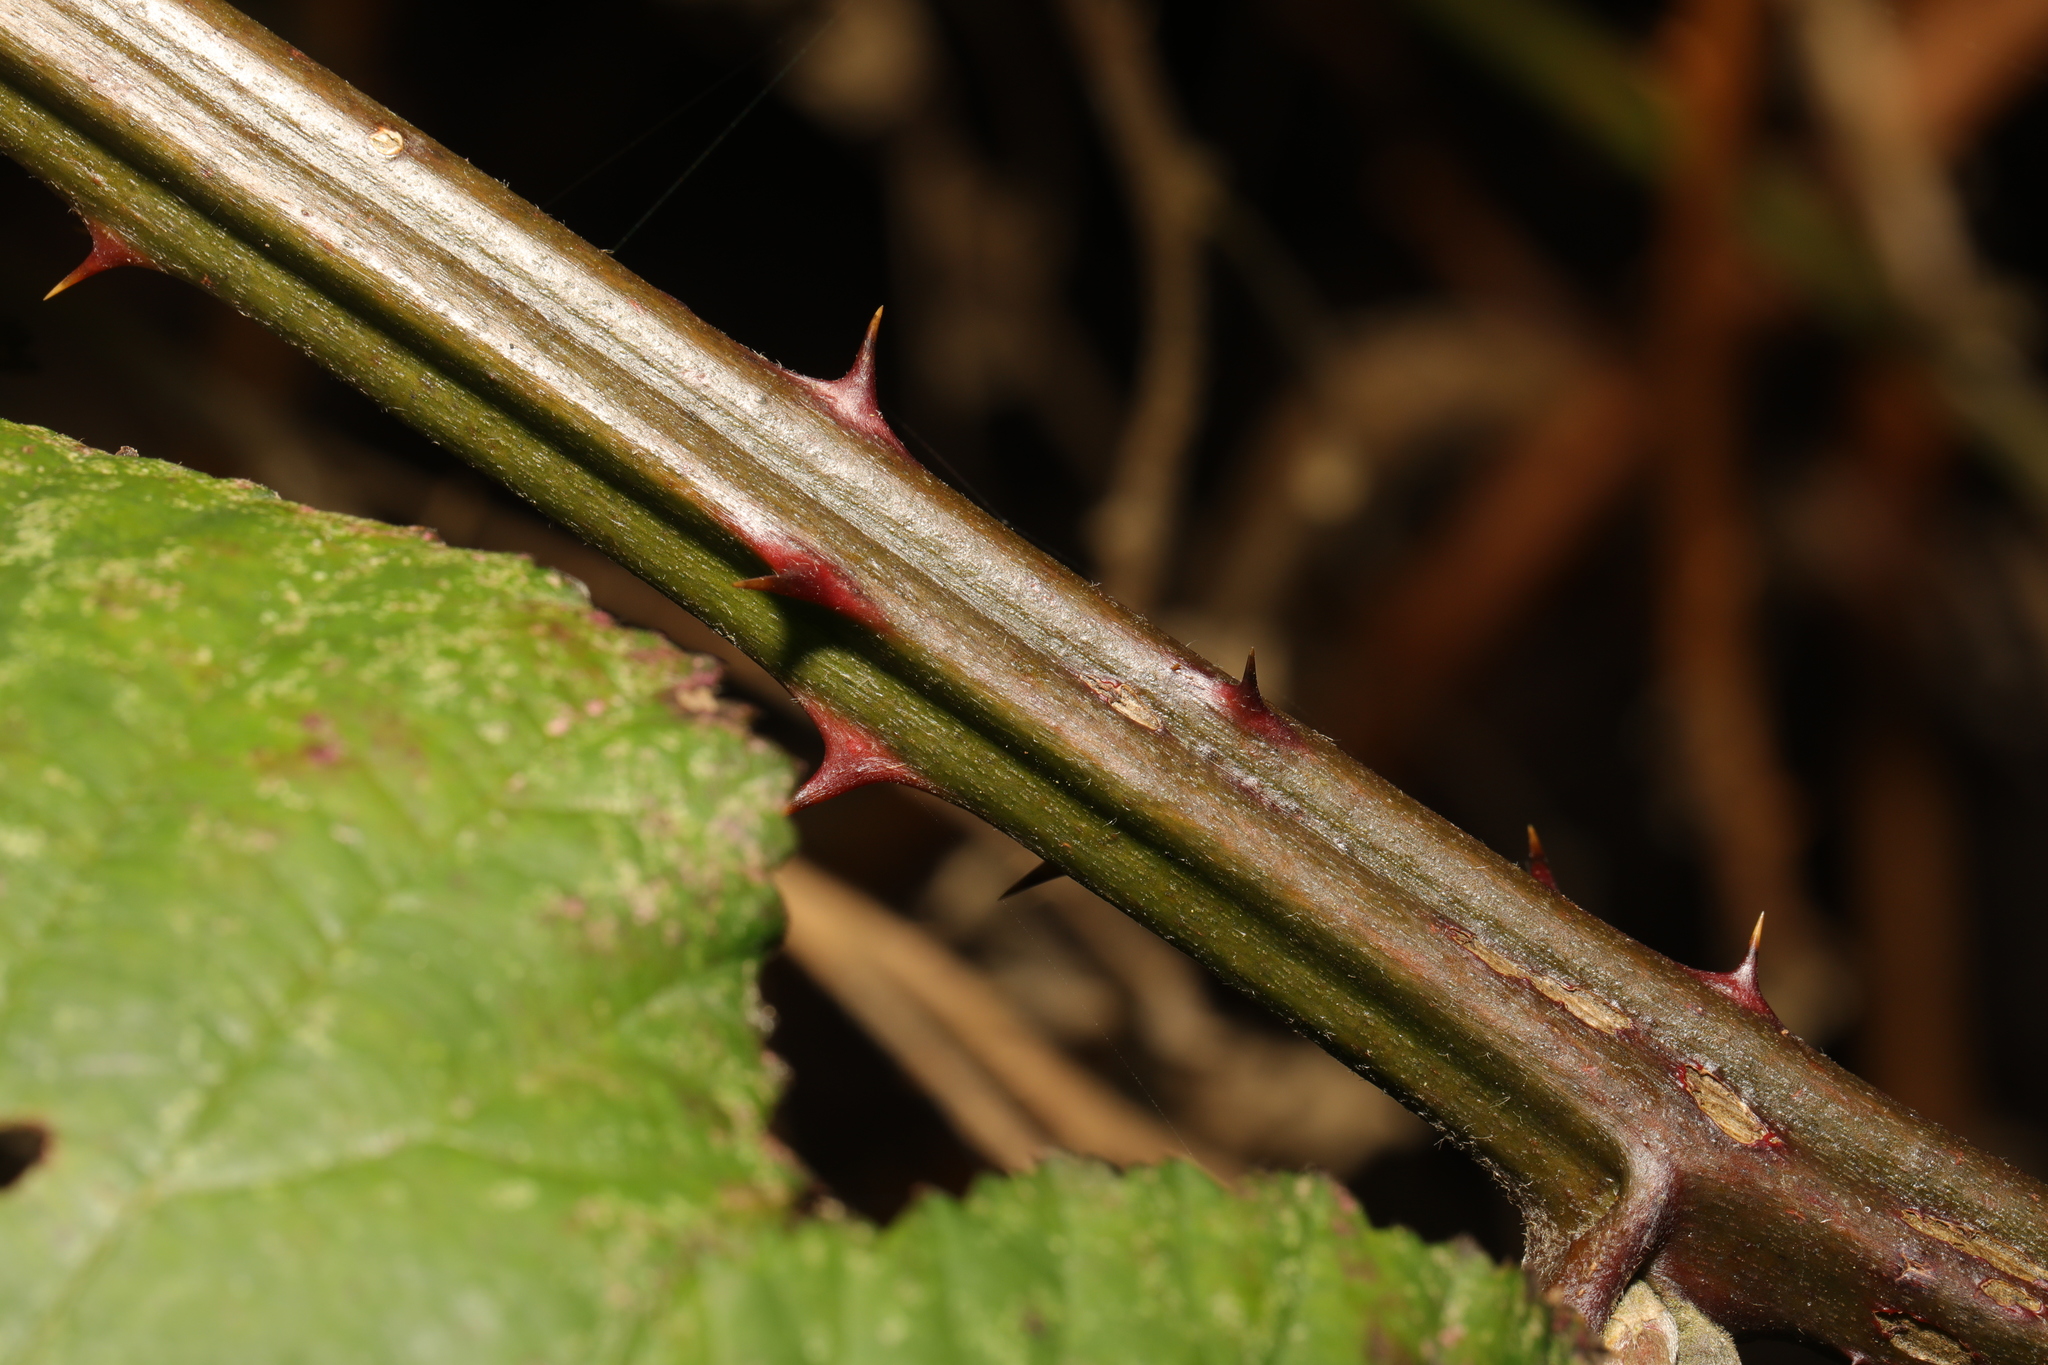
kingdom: Plantae
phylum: Tracheophyta
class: Magnoliopsida
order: Rosales
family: Rosaceae
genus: Rubus
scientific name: Rubus armeniacus
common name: Himalayan blackberry
